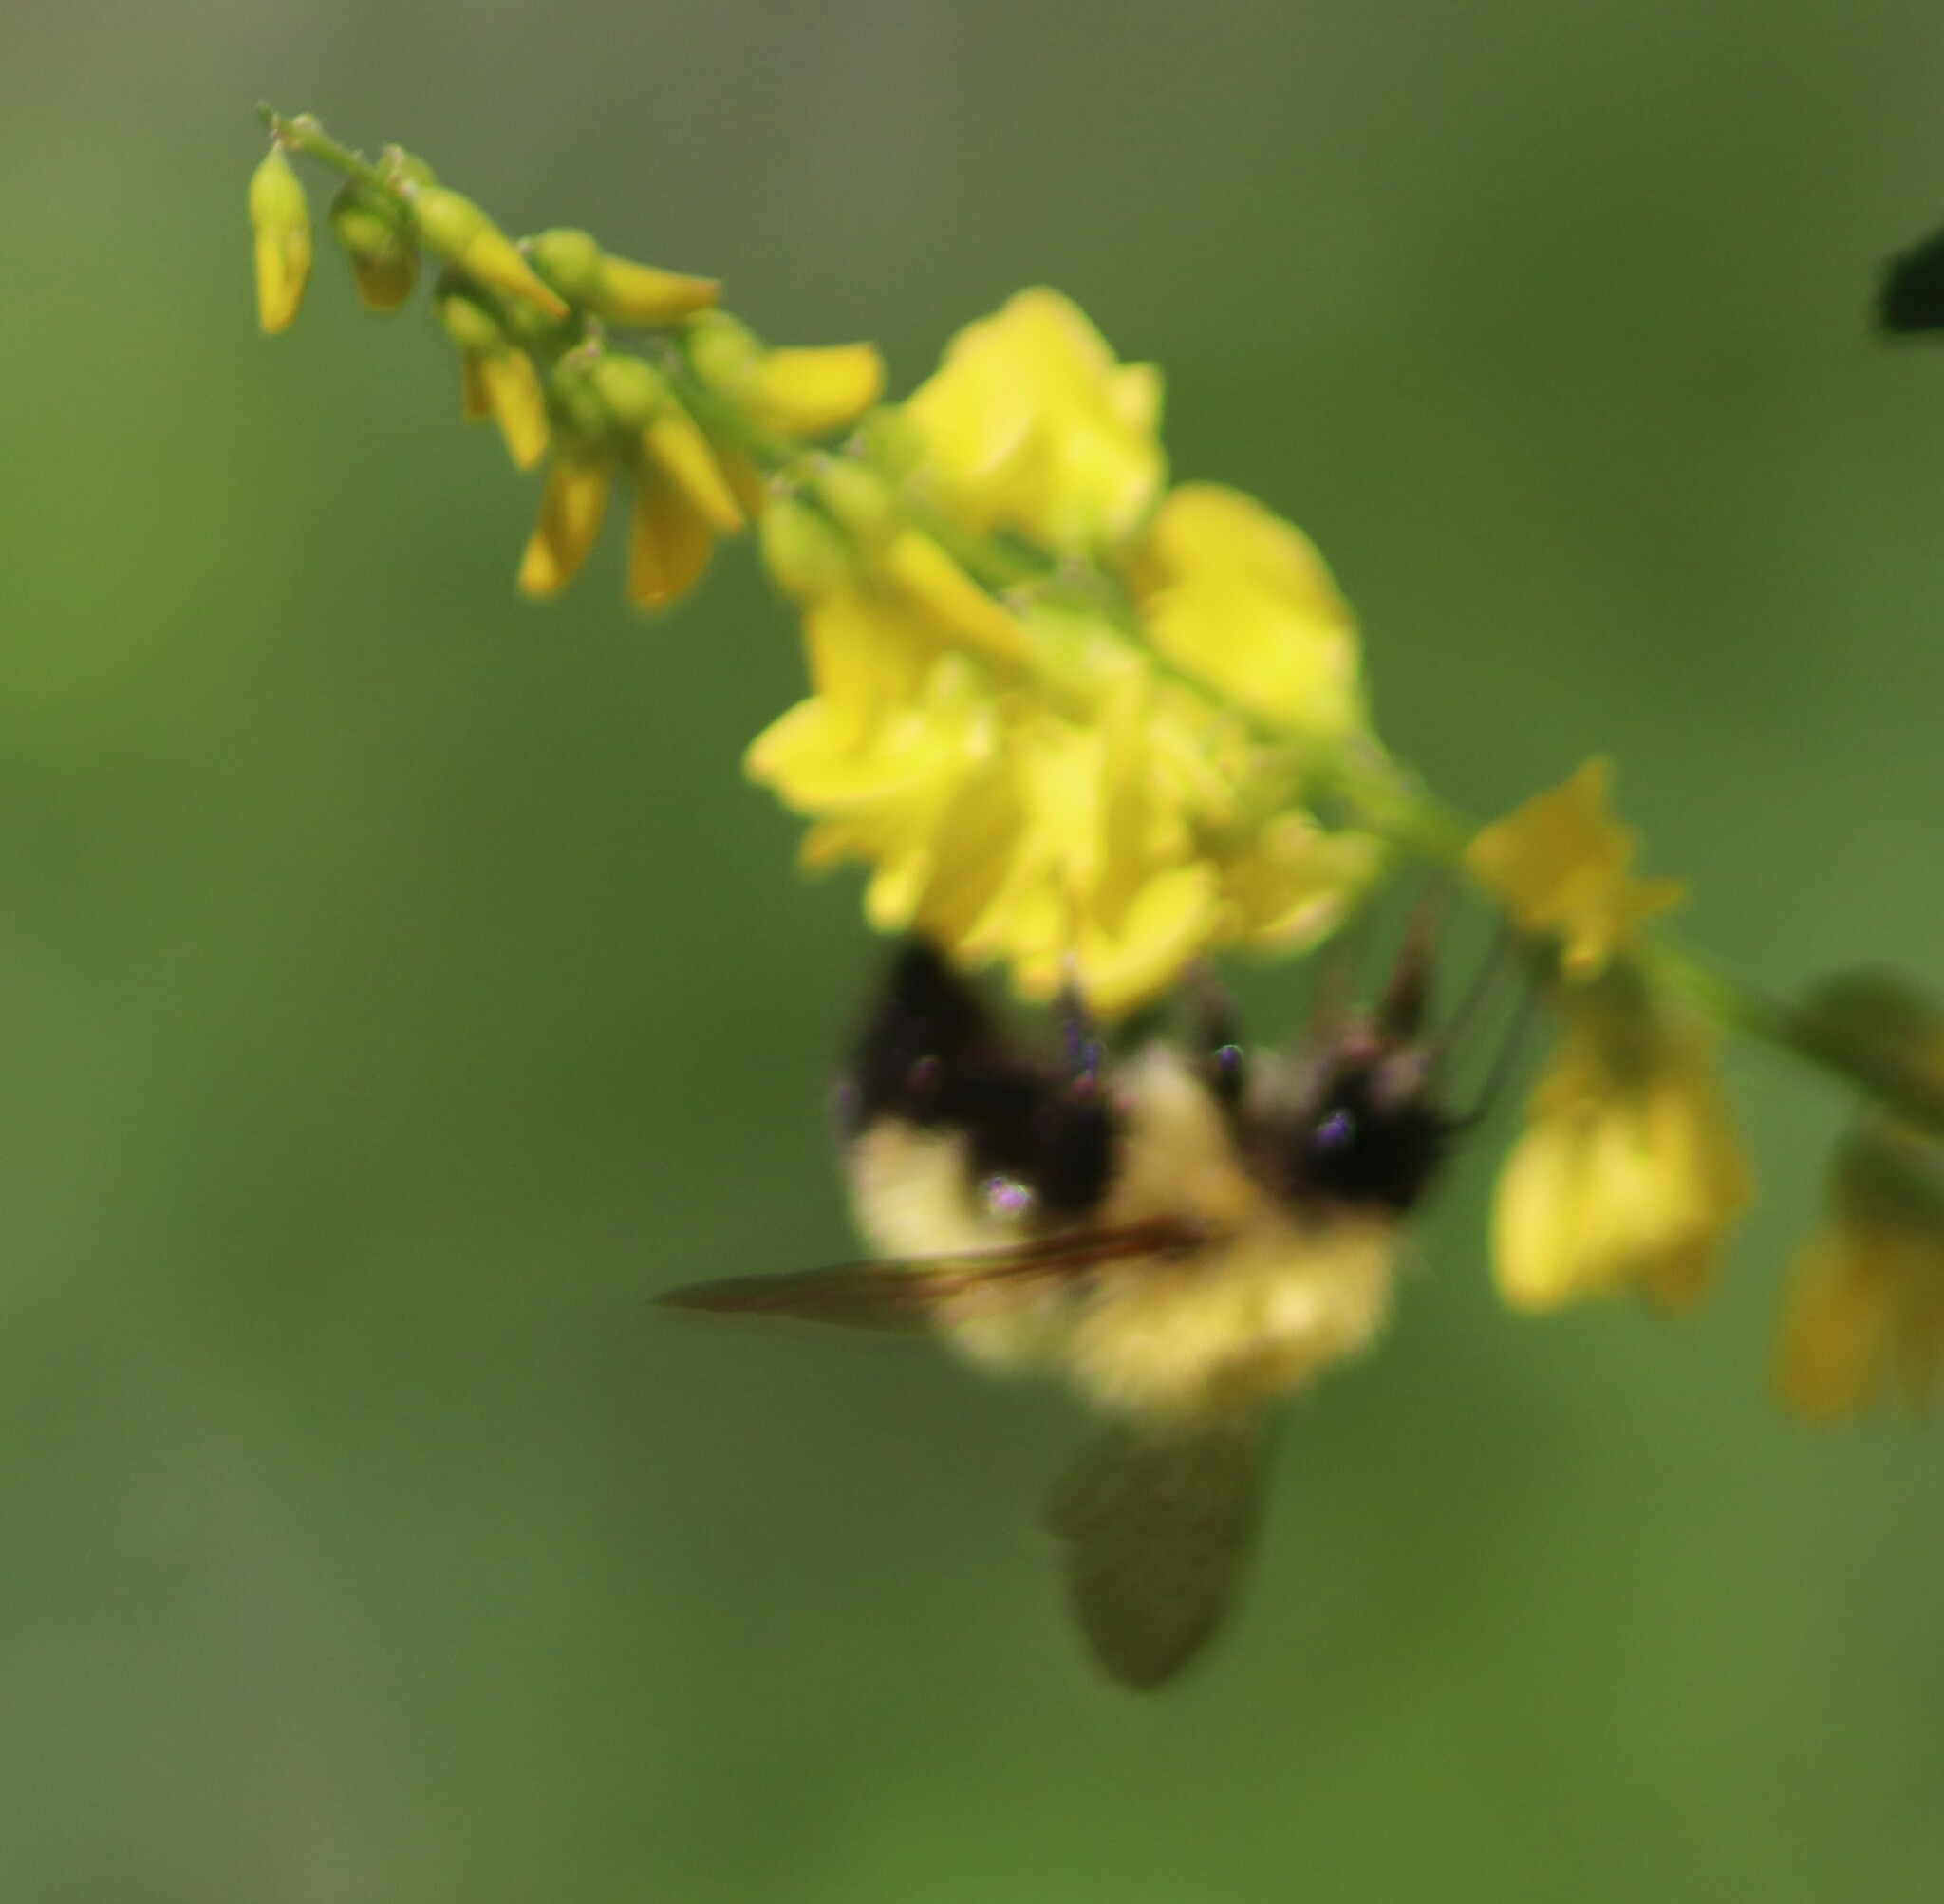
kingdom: Animalia
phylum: Arthropoda
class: Insecta
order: Hymenoptera
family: Apidae
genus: Bombus
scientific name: Bombus perplexus
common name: Confusing bumble bee
